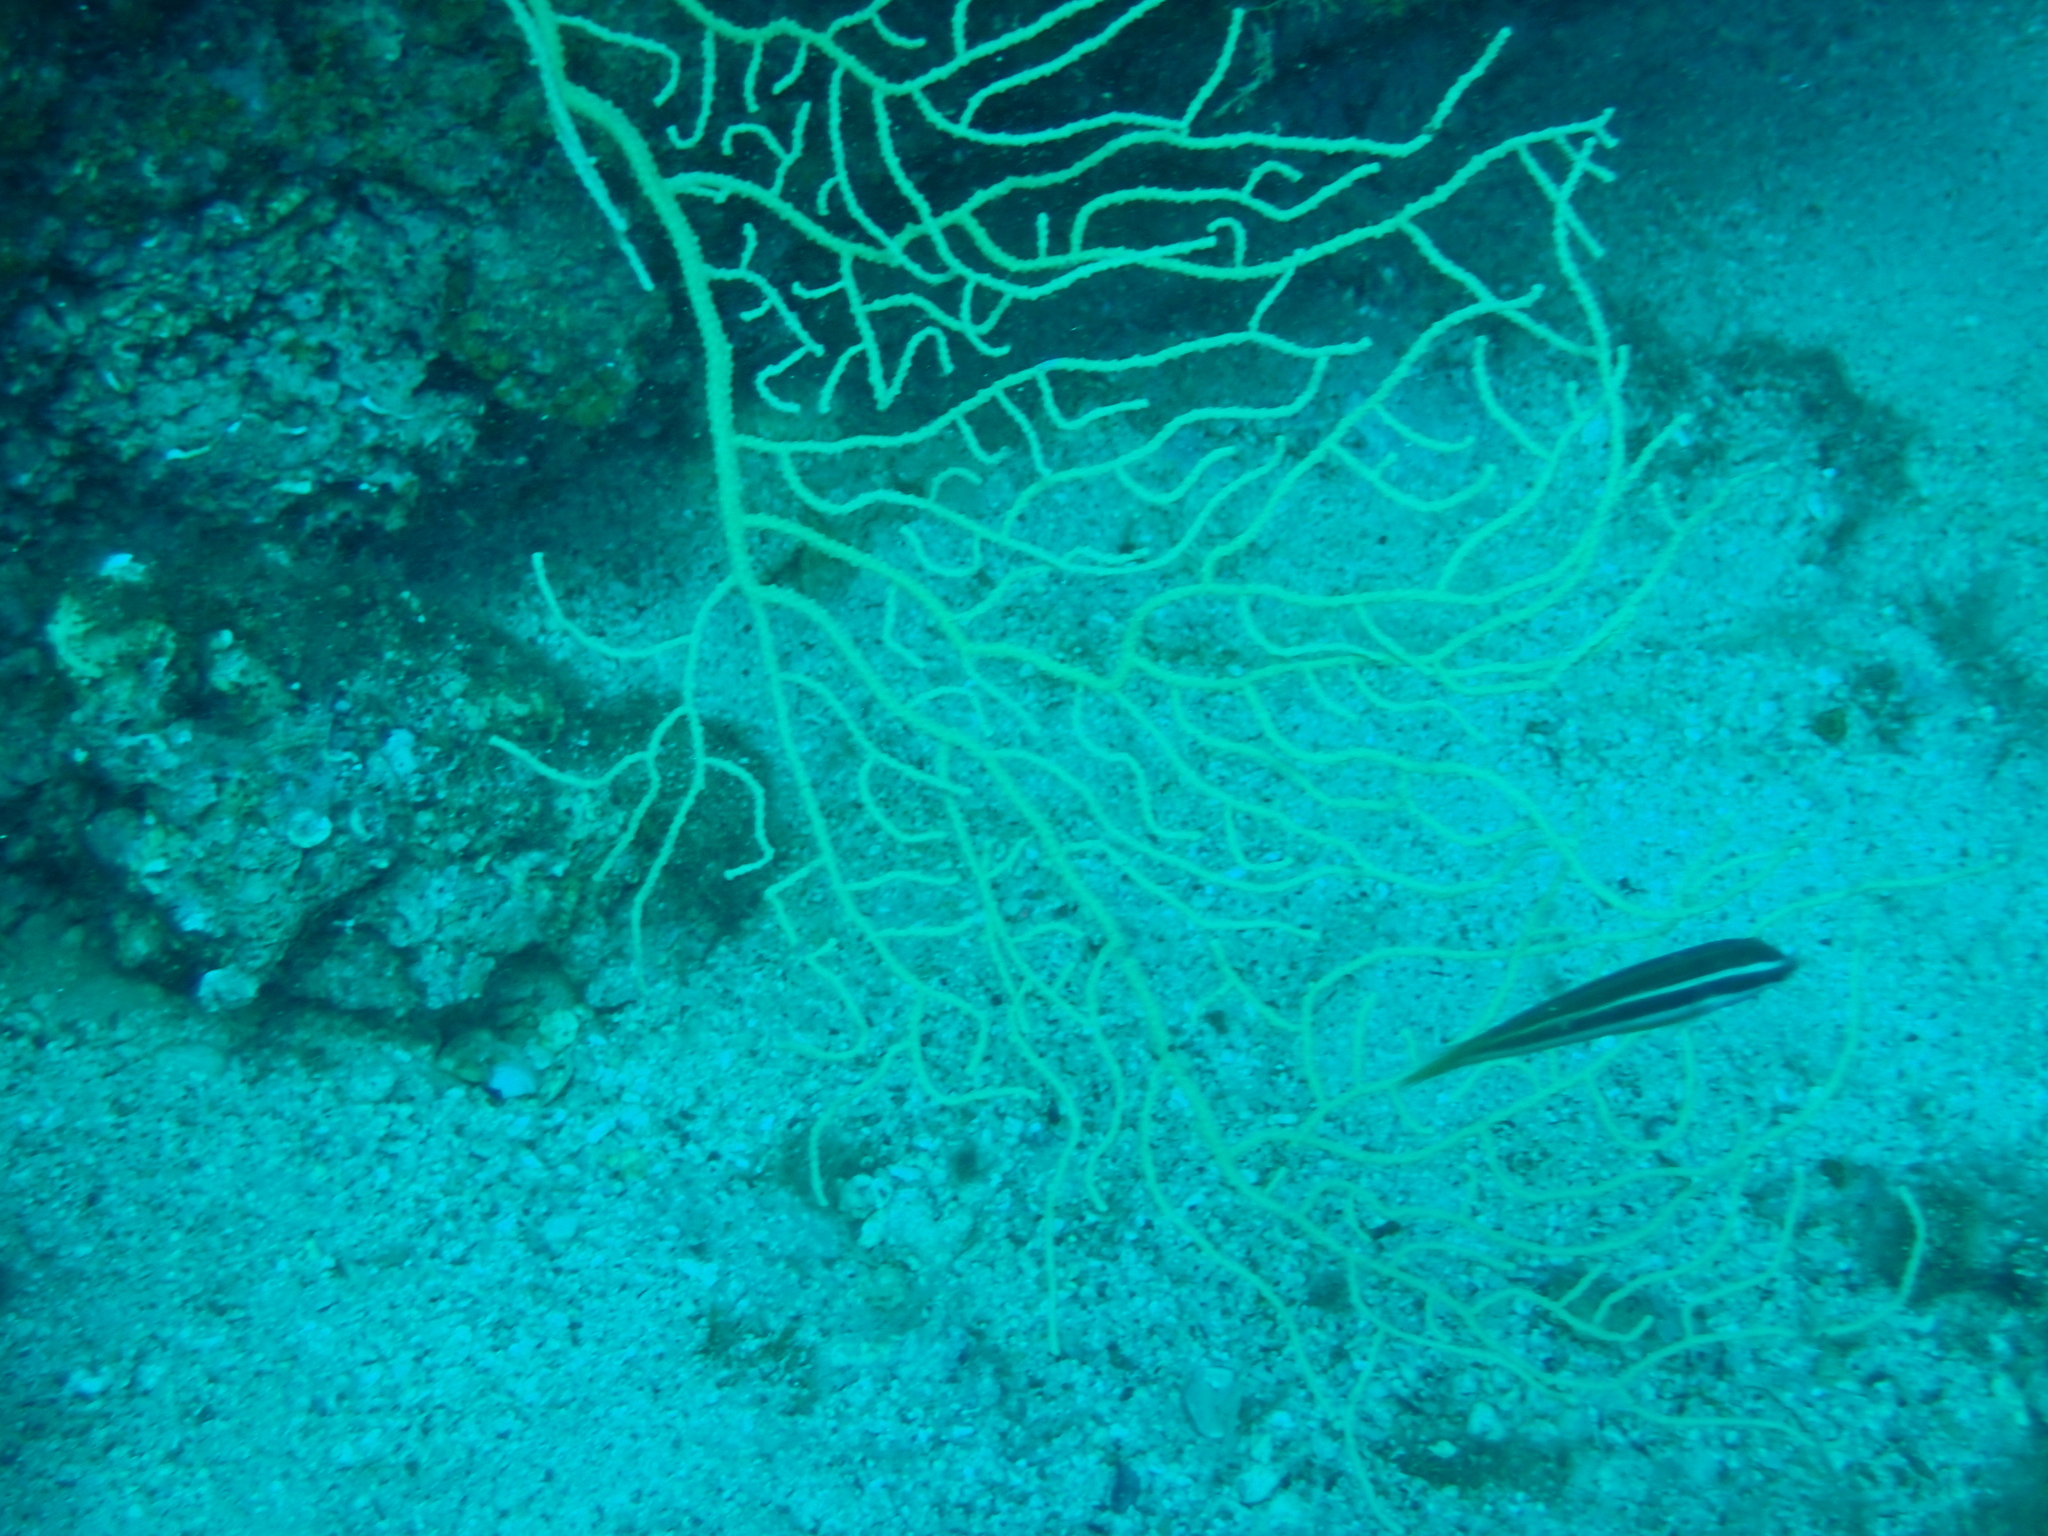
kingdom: Animalia
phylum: Cnidaria
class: Anthozoa
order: Malacalcyonacea
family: Eunicellidae
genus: Eunicella
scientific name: Eunicella cavolini
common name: Yellow gorgonian
